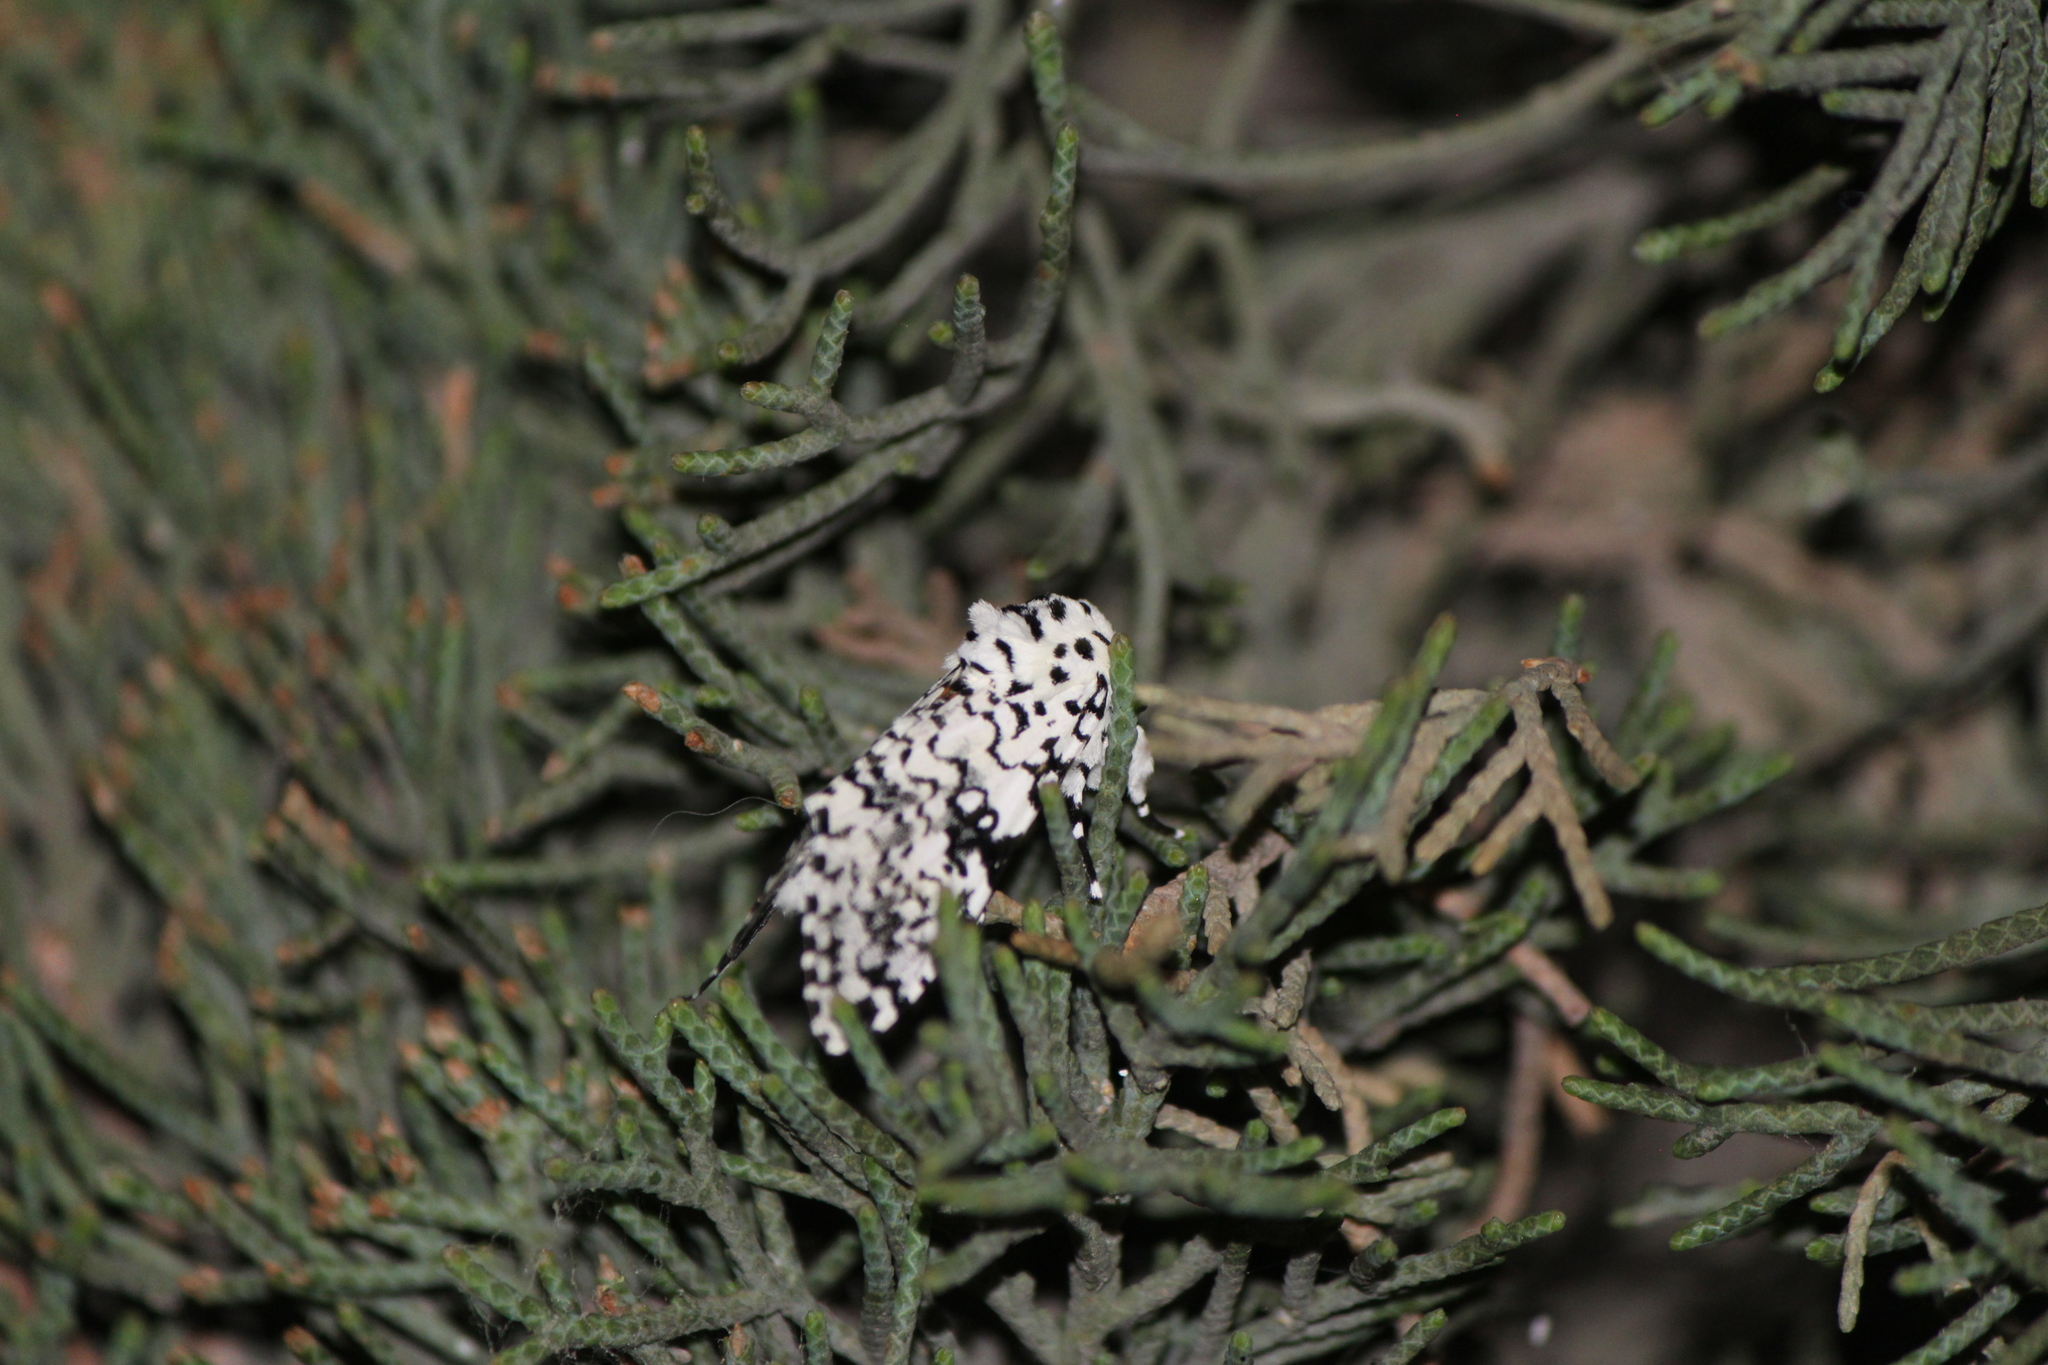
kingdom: Animalia
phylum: Arthropoda
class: Insecta
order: Lepidoptera
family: Noctuidae
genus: Lichnoptera
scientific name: Lichnoptera decora
